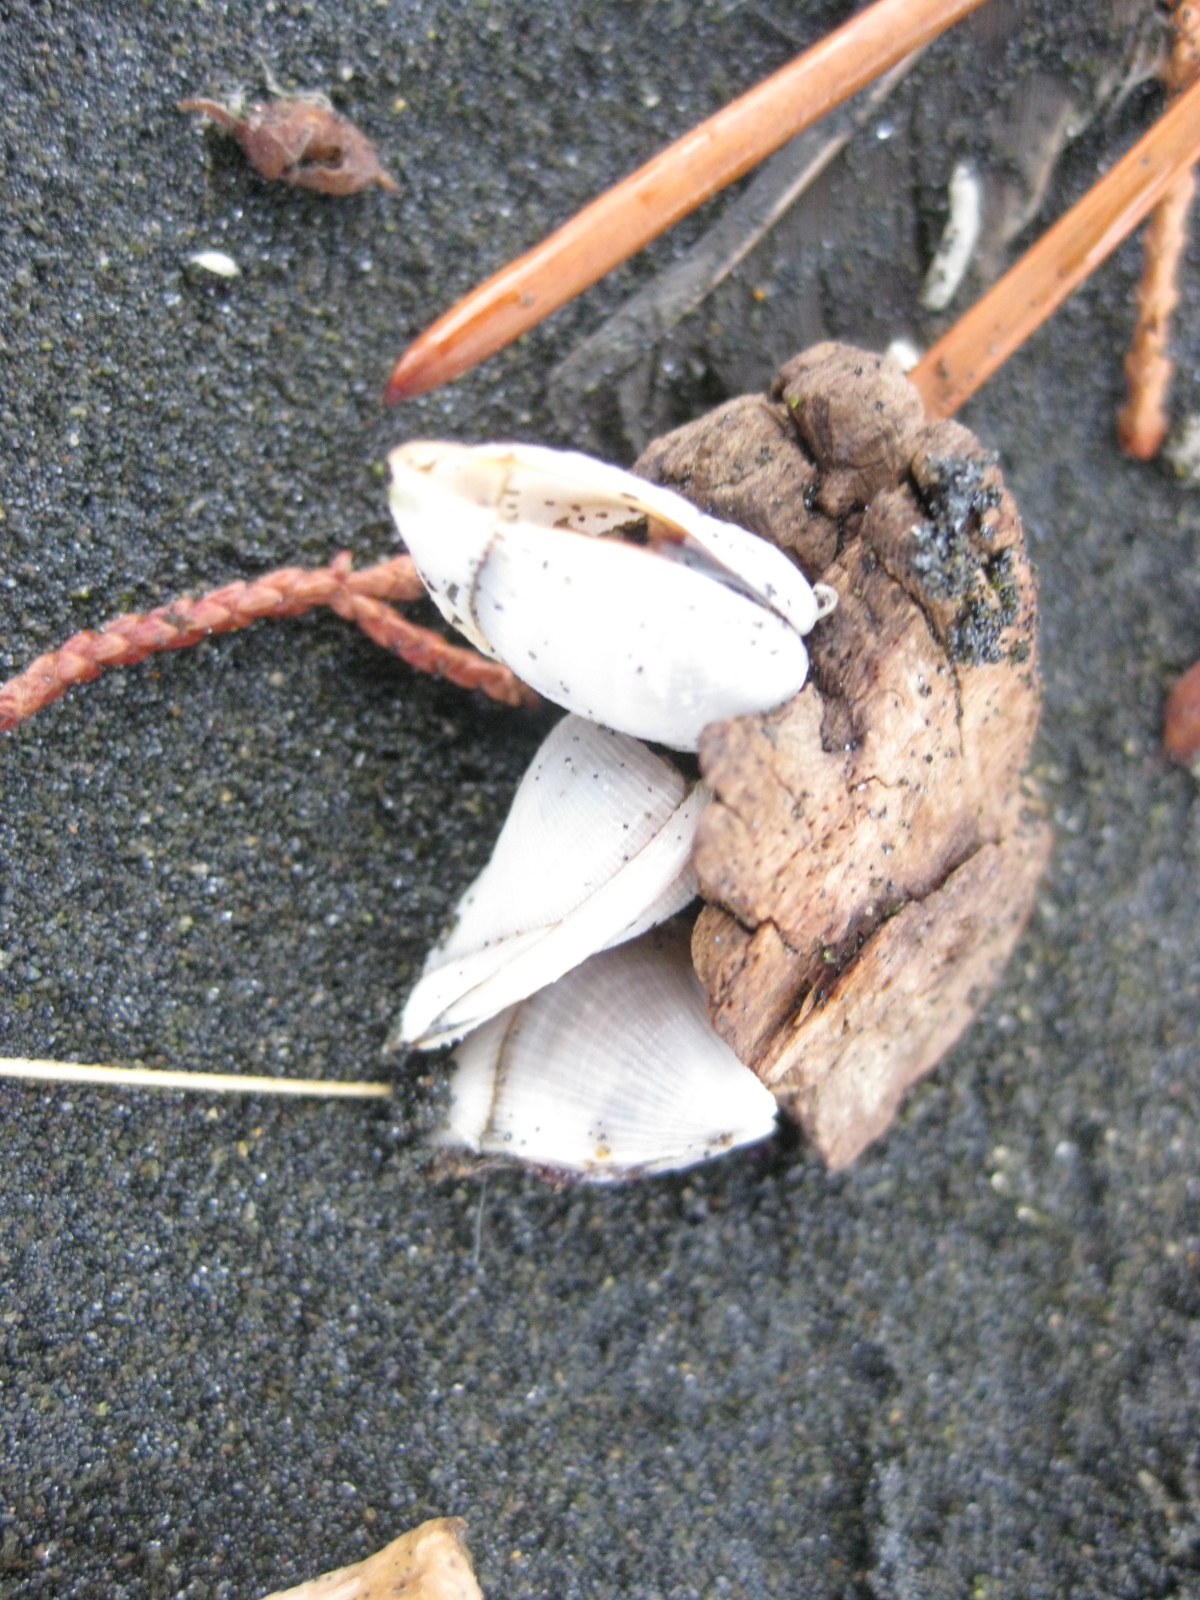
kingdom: Animalia
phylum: Arthropoda
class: Maxillopoda
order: Pedunculata
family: Lepadidae
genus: Lepas
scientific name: Lepas pectinata
